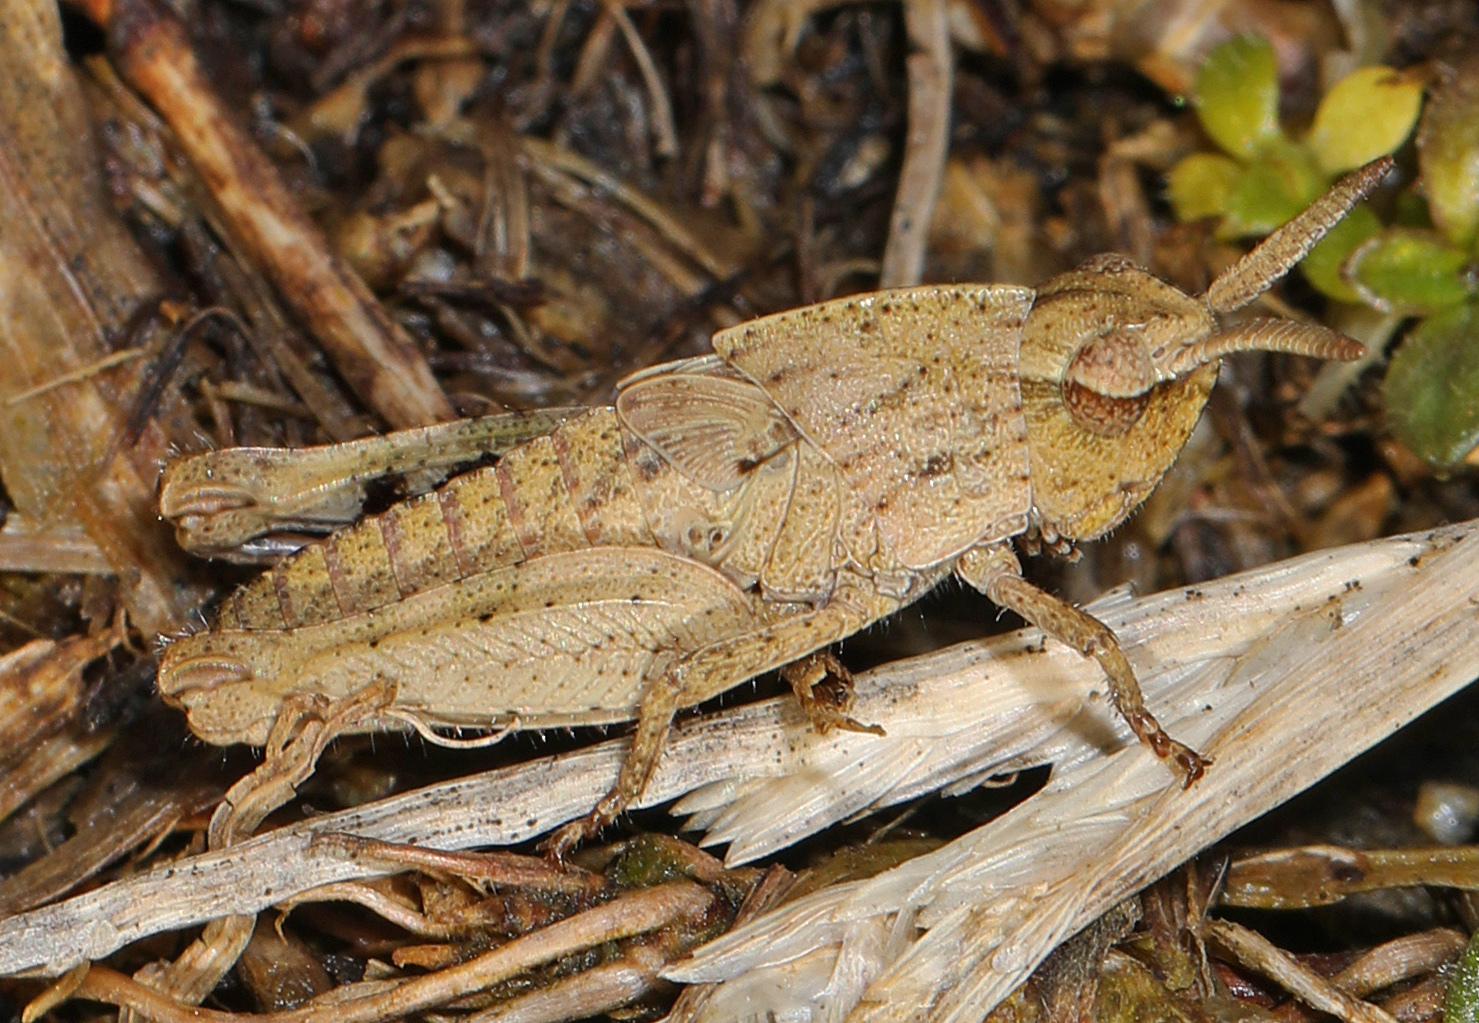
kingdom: Animalia
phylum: Arthropoda
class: Insecta
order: Orthoptera
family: Acrididae
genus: Chortophaga
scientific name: Chortophaga viridifasciata
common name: Green-striped grasshopper
